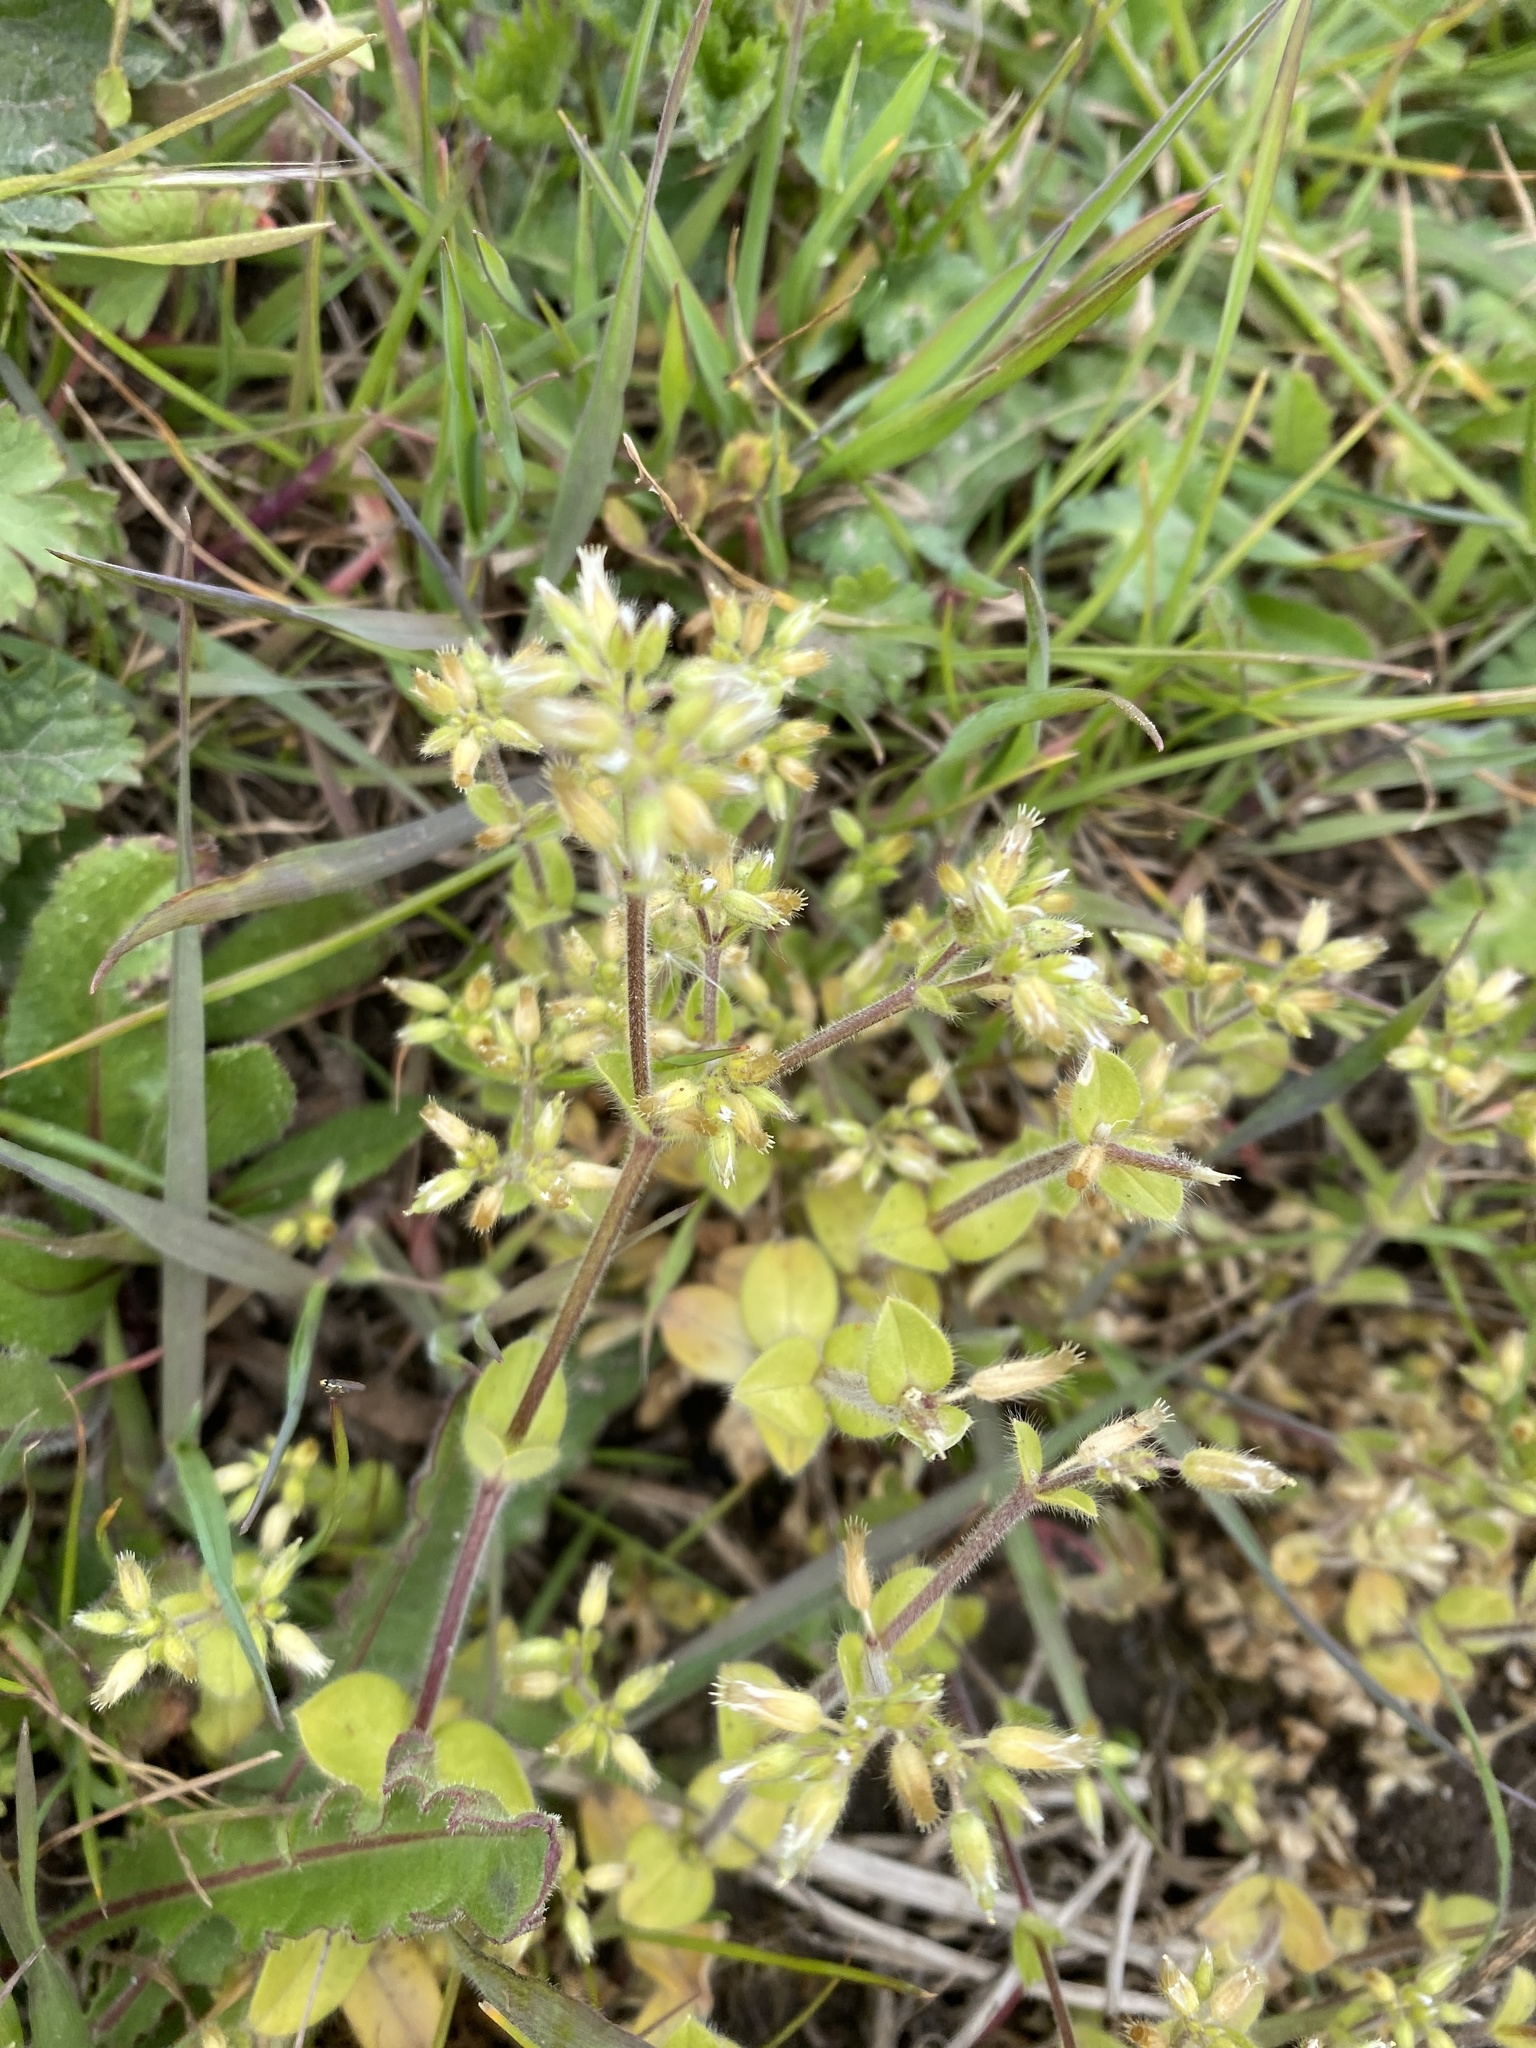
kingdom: Plantae
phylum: Tracheophyta
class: Magnoliopsida
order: Caryophyllales
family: Caryophyllaceae
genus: Cerastium
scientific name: Cerastium glomeratum
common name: Sticky chickweed
